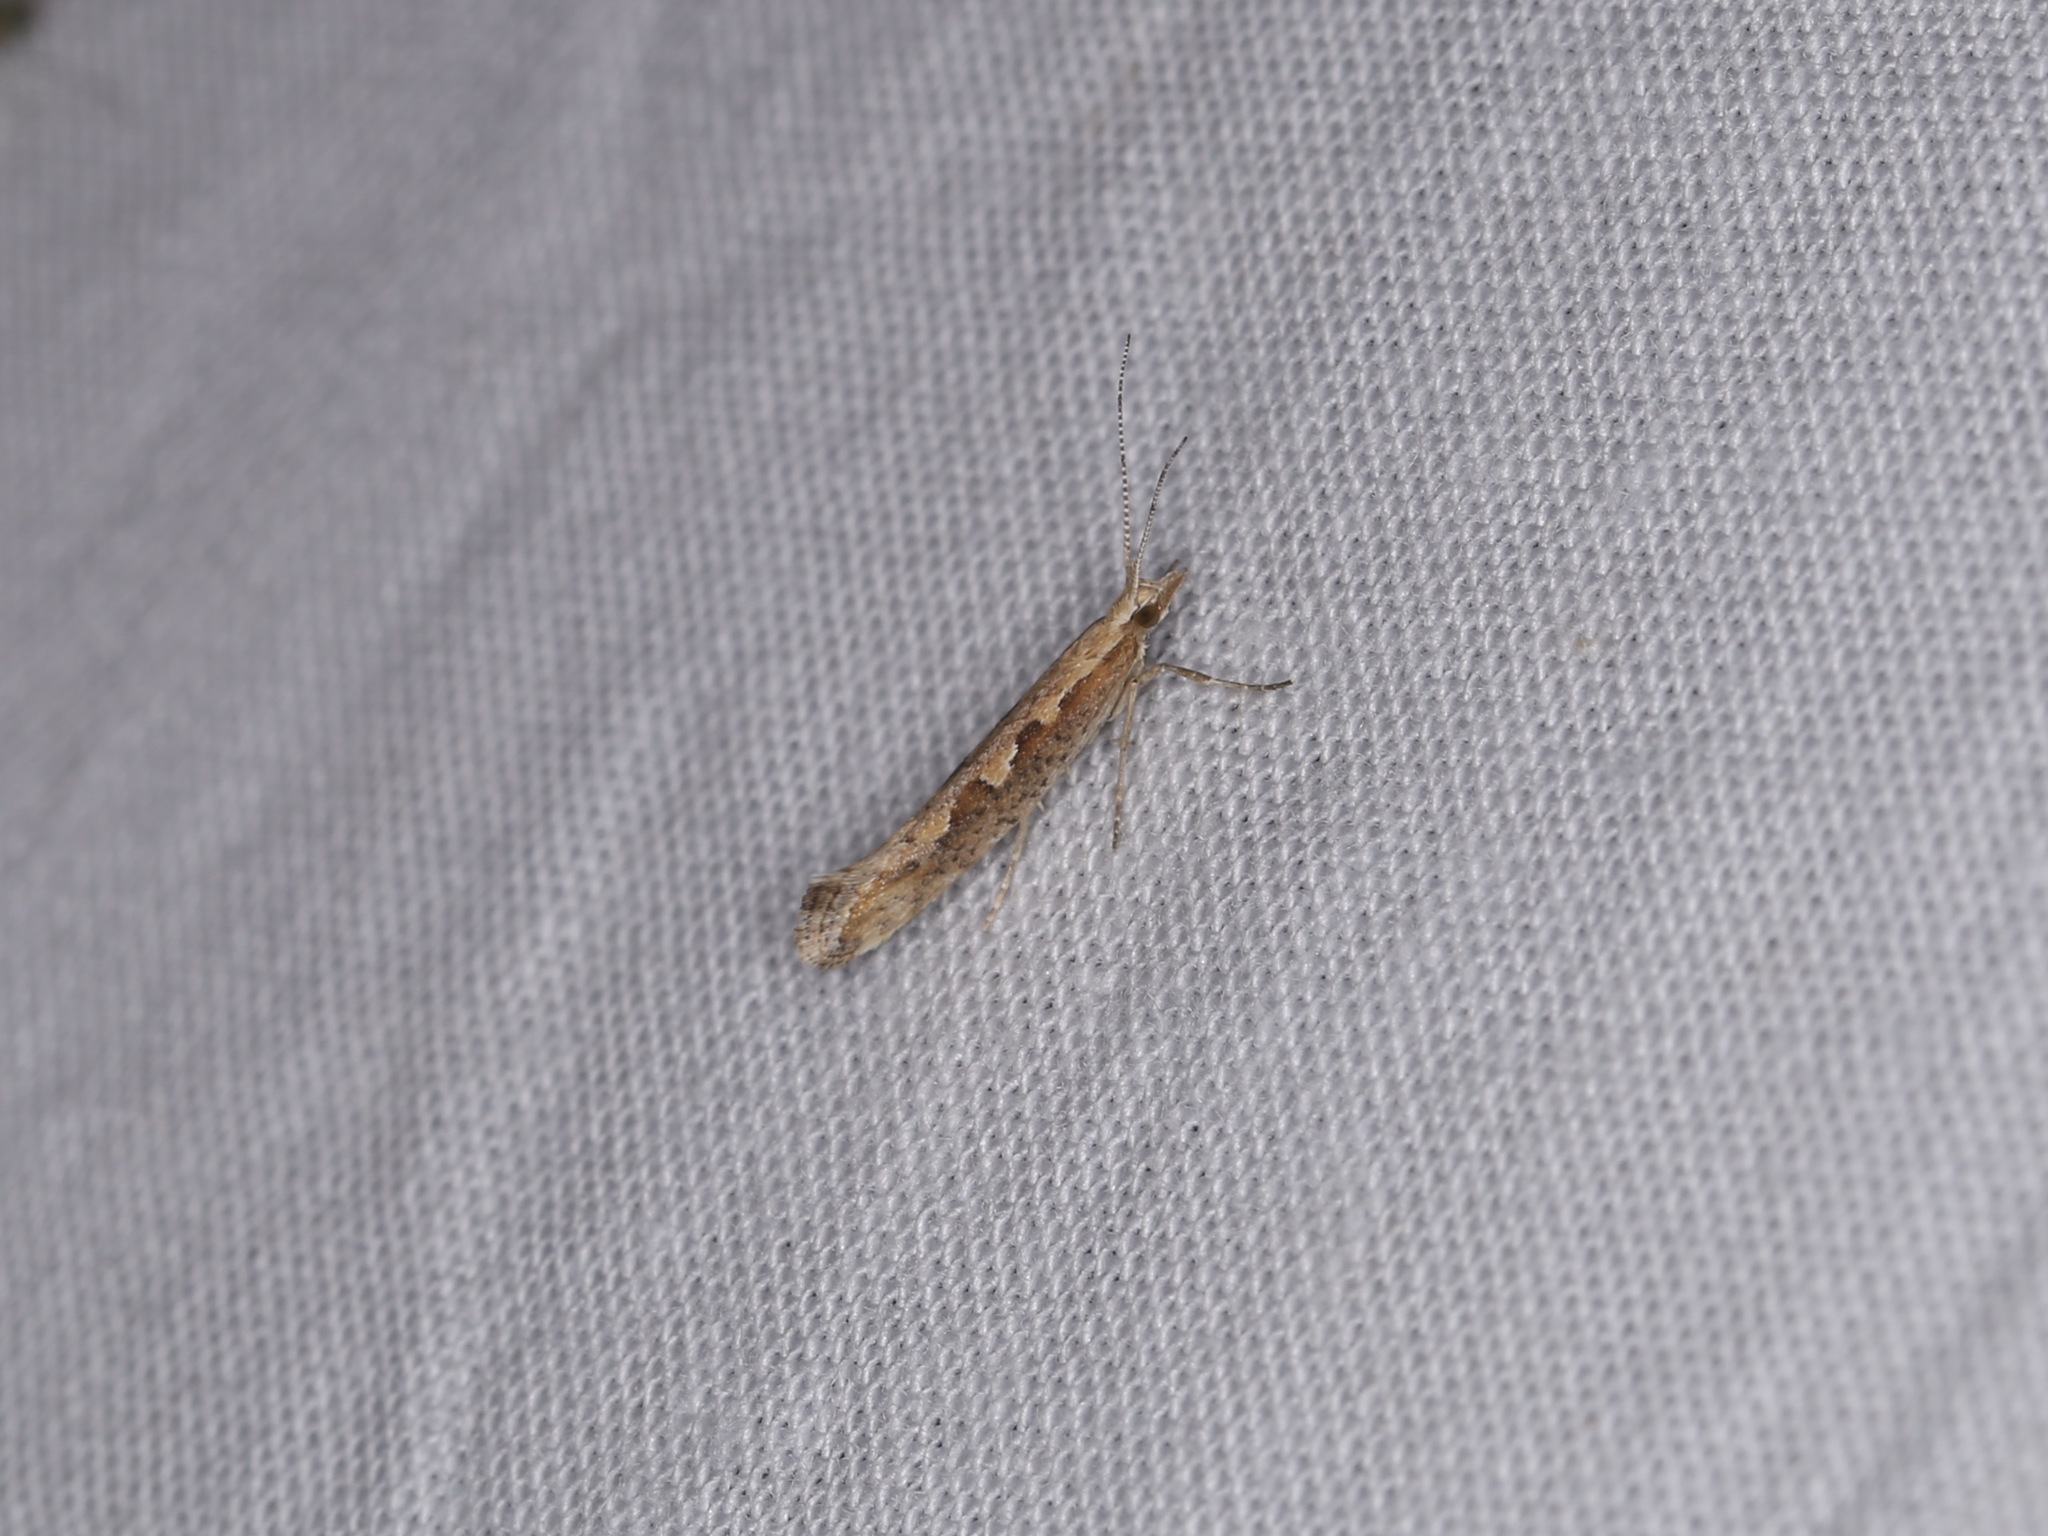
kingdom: Animalia
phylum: Arthropoda
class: Insecta
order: Lepidoptera
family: Plutellidae
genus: Plutella
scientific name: Plutella xylostella
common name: Diamond-back moth
